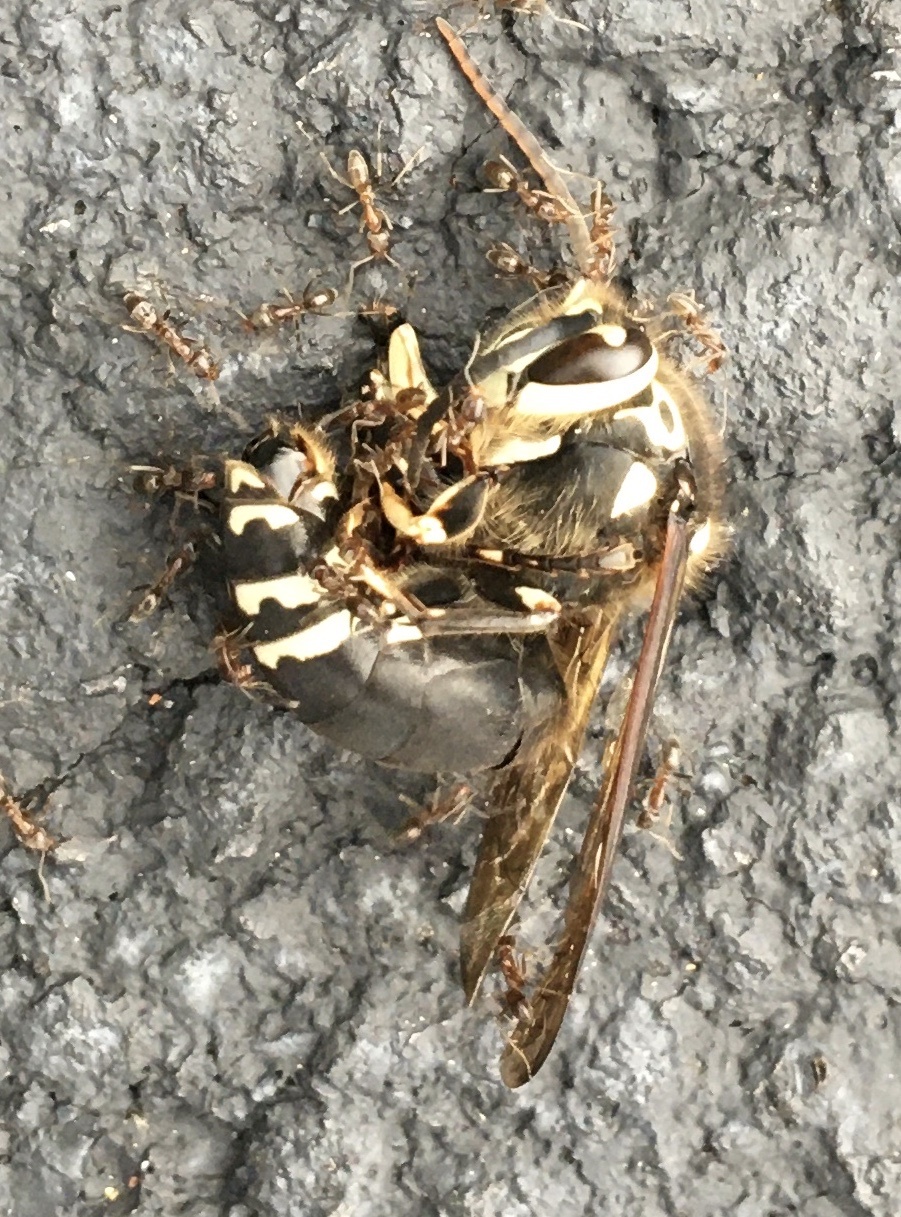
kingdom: Animalia
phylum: Arthropoda
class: Insecta
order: Hymenoptera
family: Vespidae
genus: Dolichovespula
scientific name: Dolichovespula maculata
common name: Bald-faced hornet
